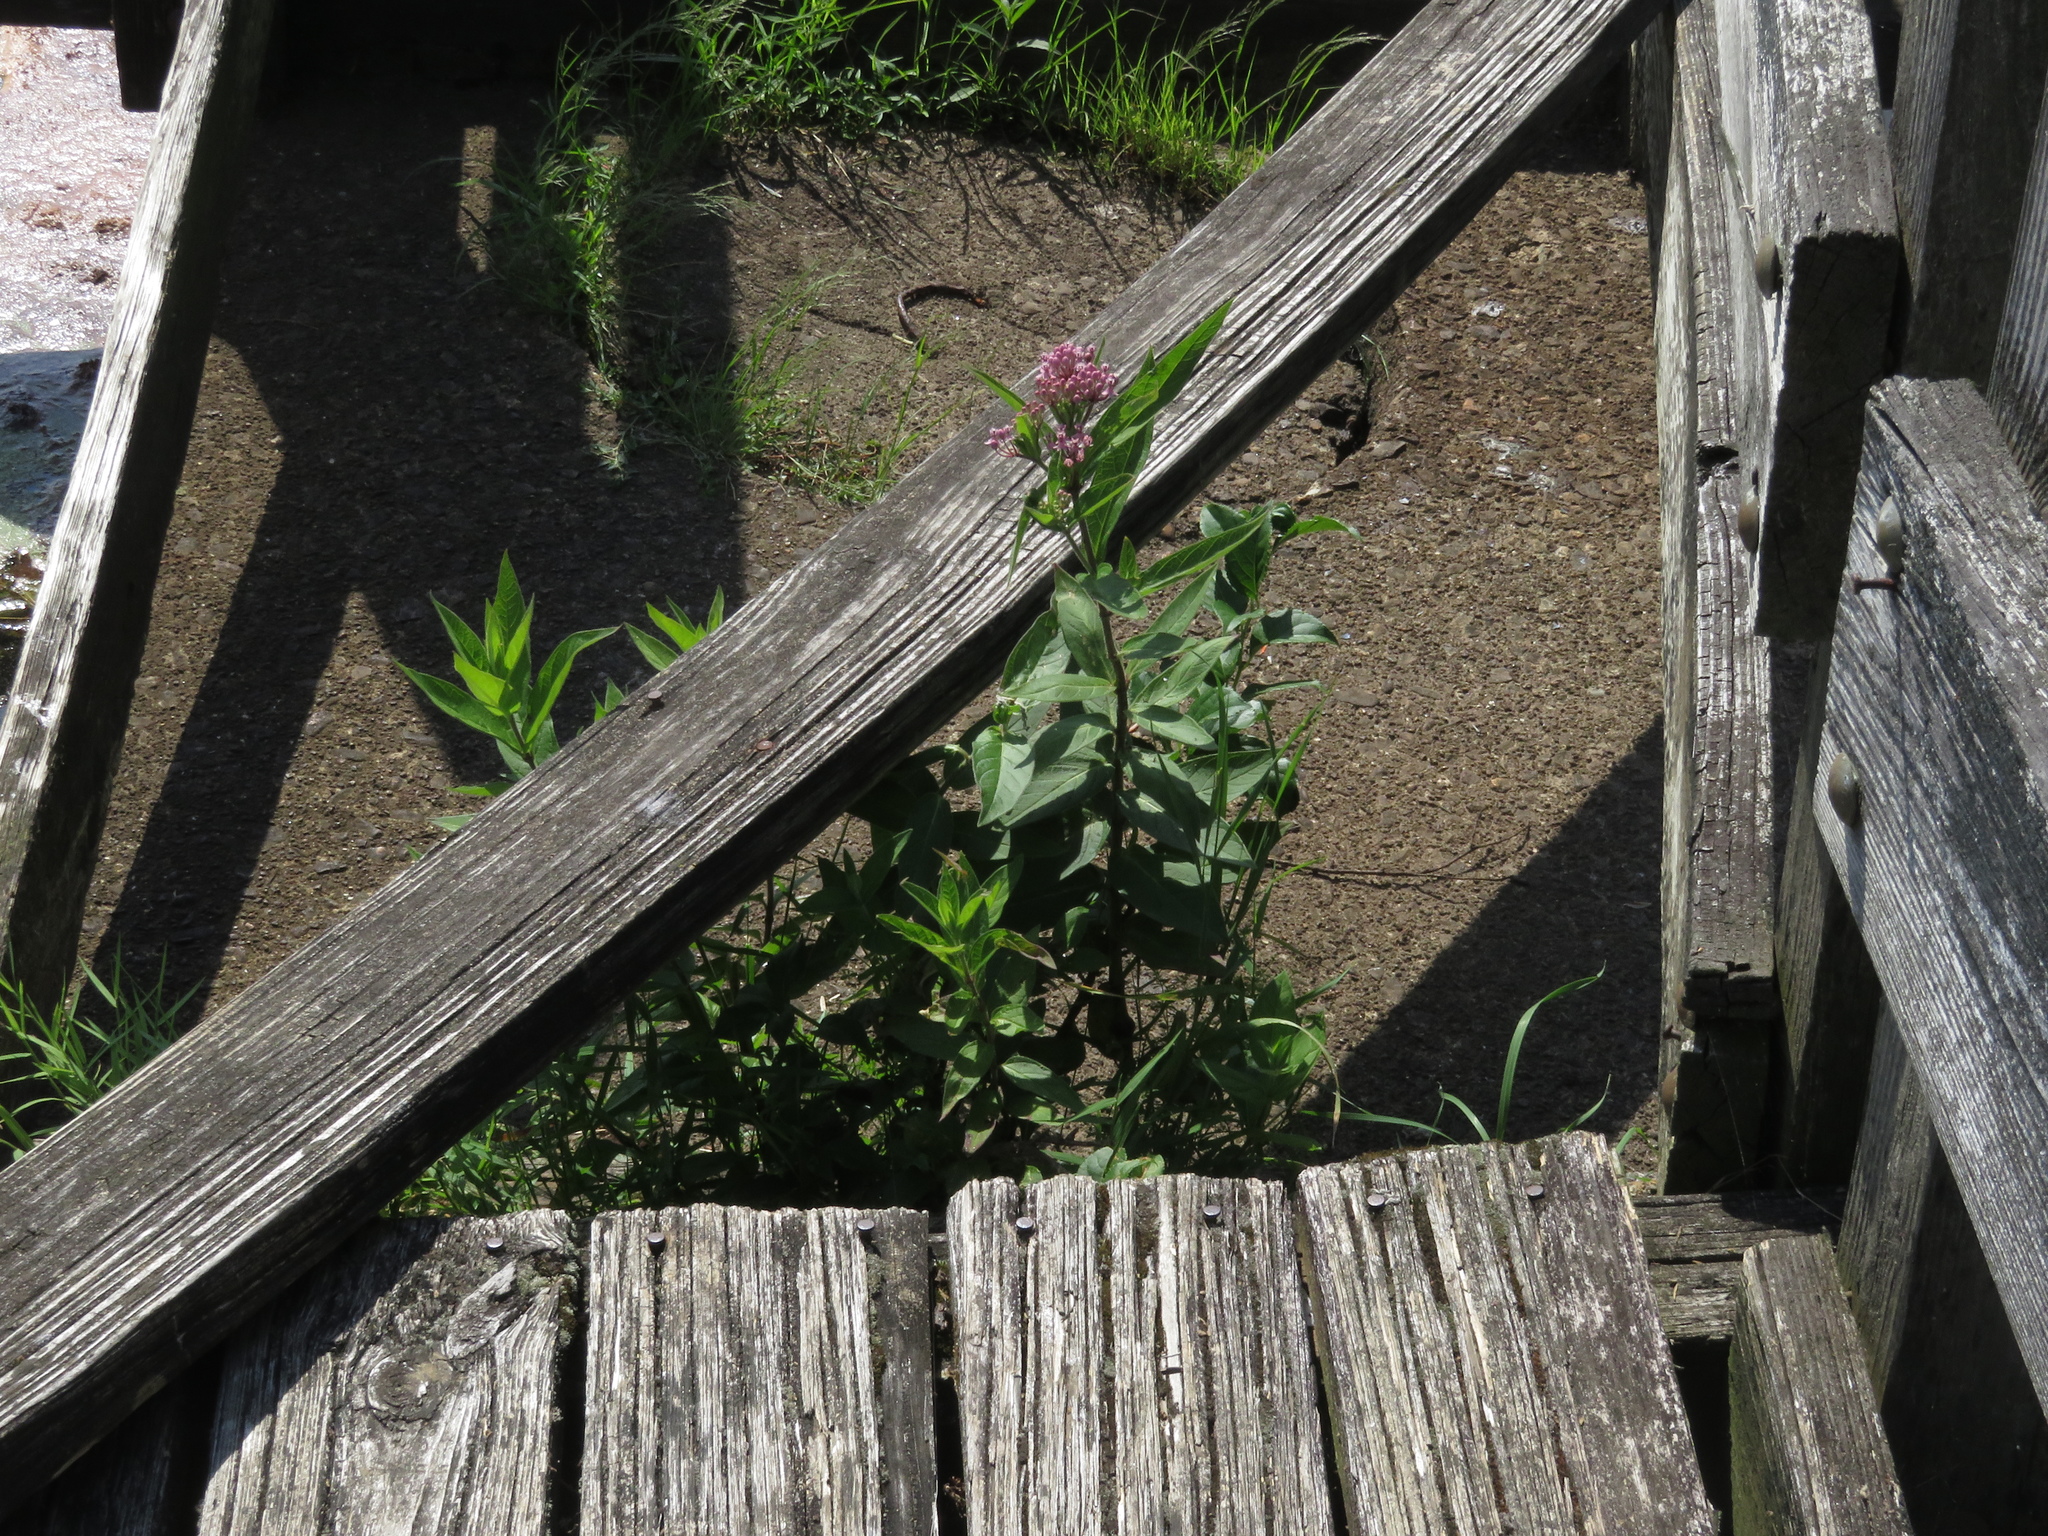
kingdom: Plantae
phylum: Tracheophyta
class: Magnoliopsida
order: Gentianales
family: Apocynaceae
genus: Asclepias
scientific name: Asclepias incarnata
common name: Swamp milkweed
